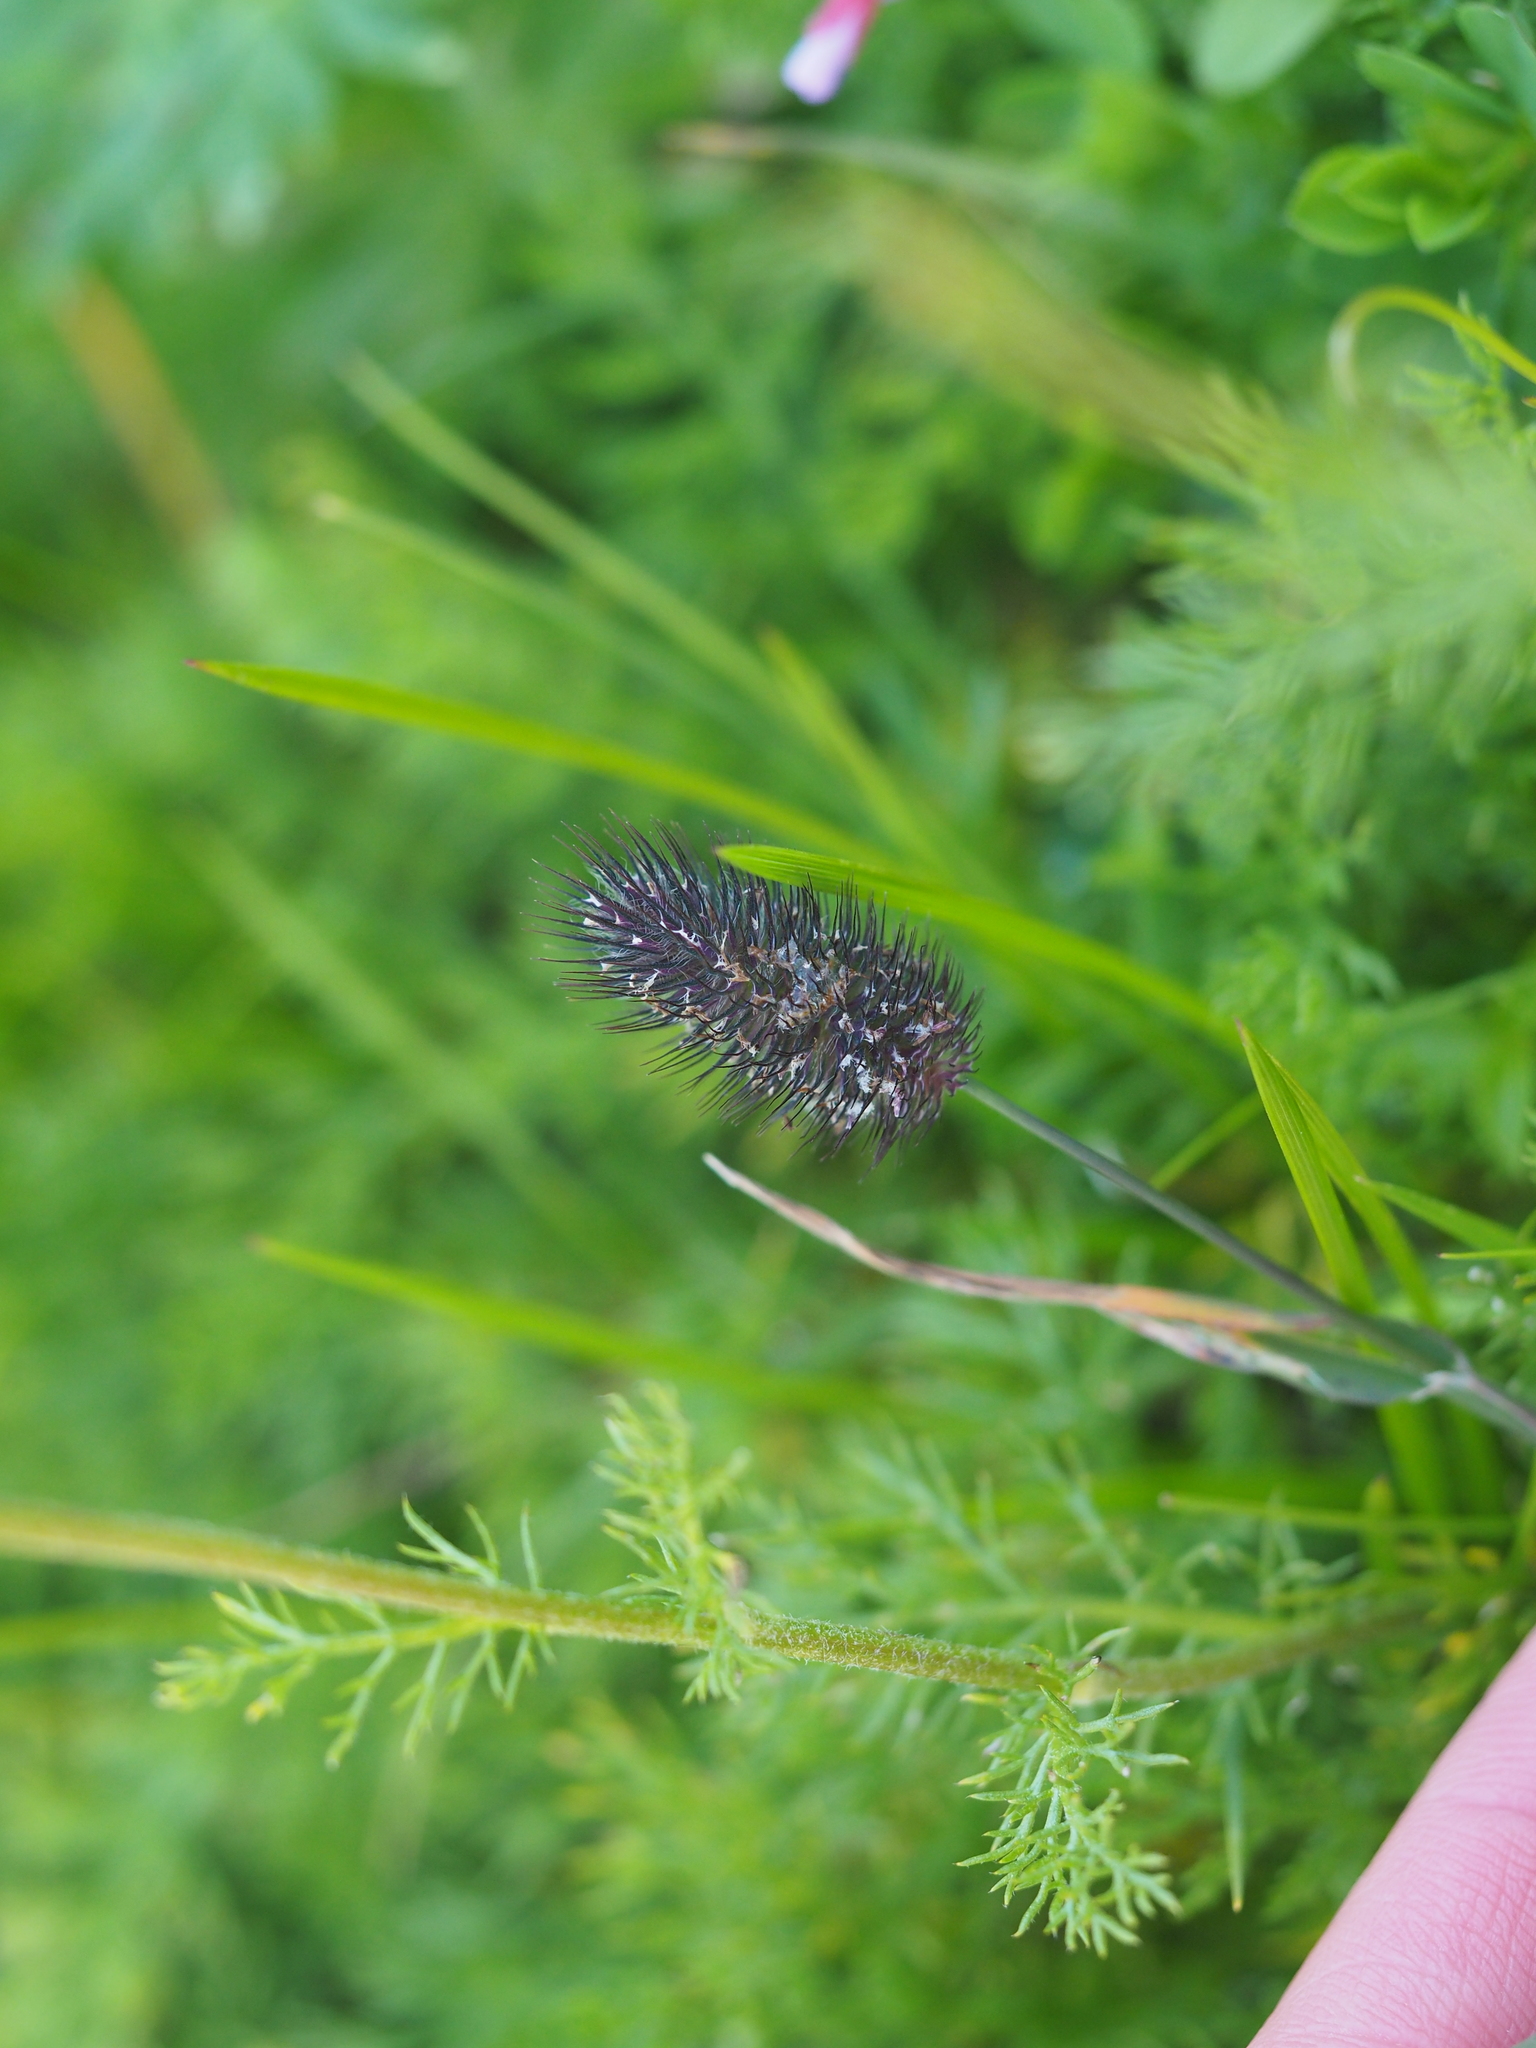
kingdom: Plantae
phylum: Tracheophyta
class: Liliopsida
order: Poales
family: Poaceae
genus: Phleum
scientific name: Phleum alpinum
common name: Alpine cat's-tail
